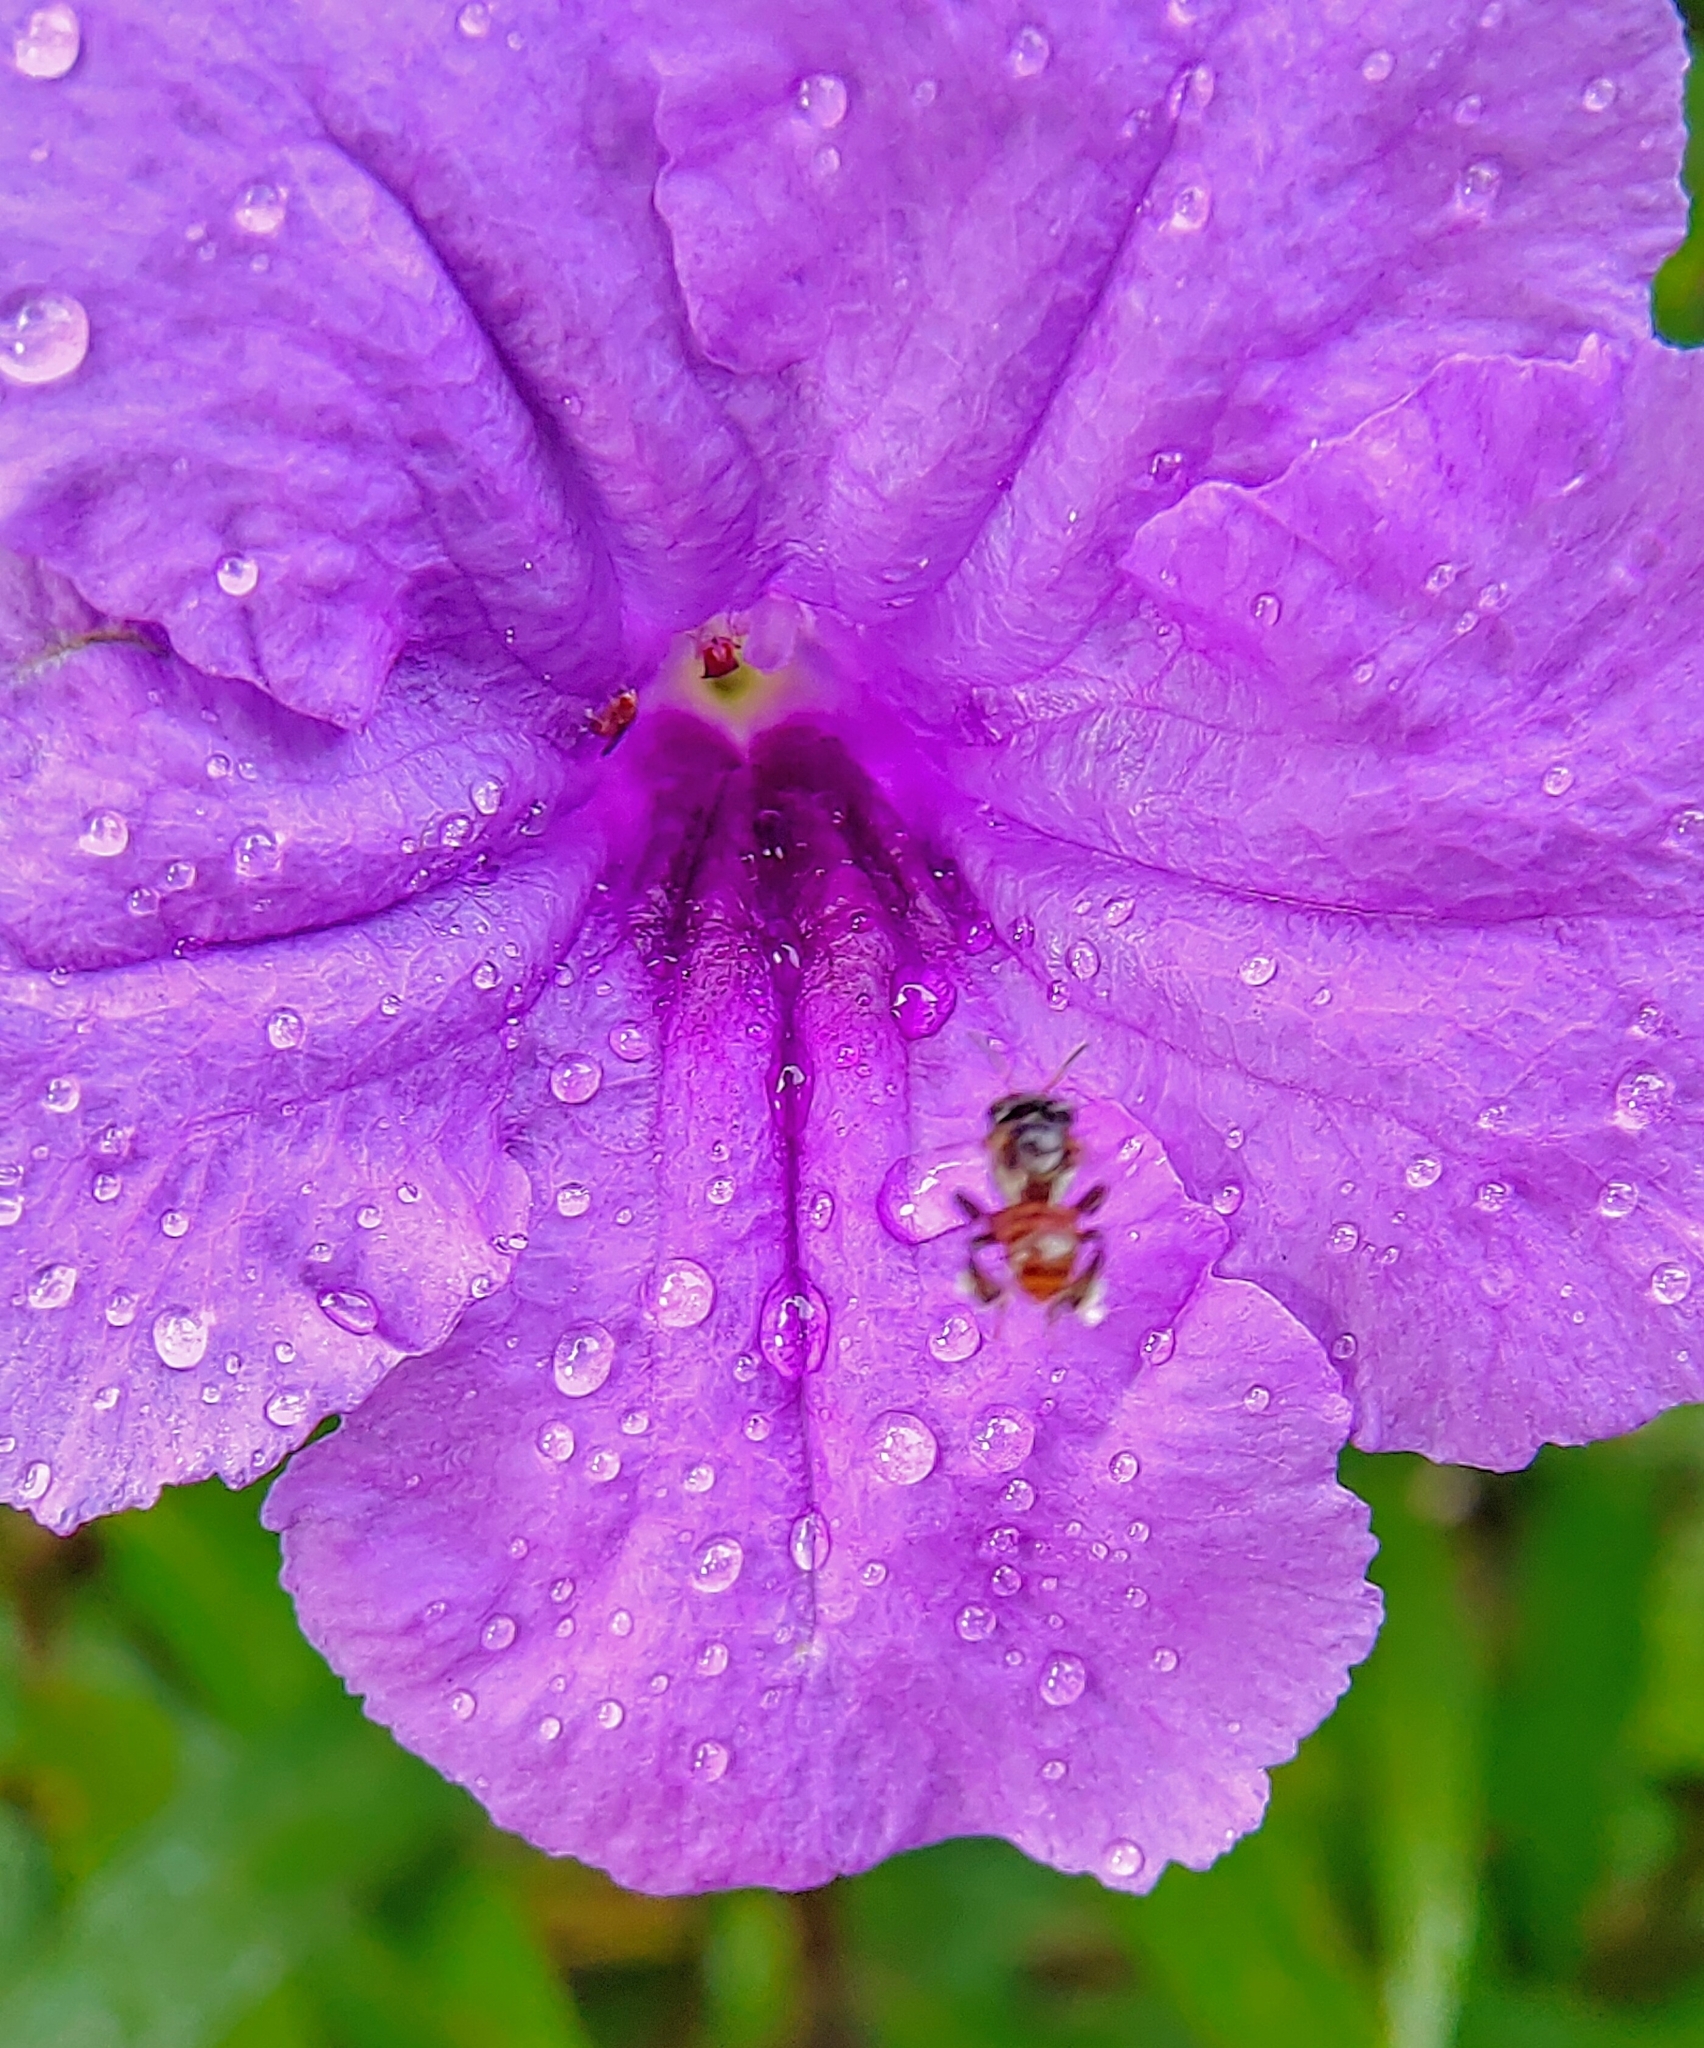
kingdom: Animalia
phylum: Arthropoda
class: Insecta
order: Hymenoptera
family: Apidae
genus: Tetragonula
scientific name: Tetragonula valdezi
